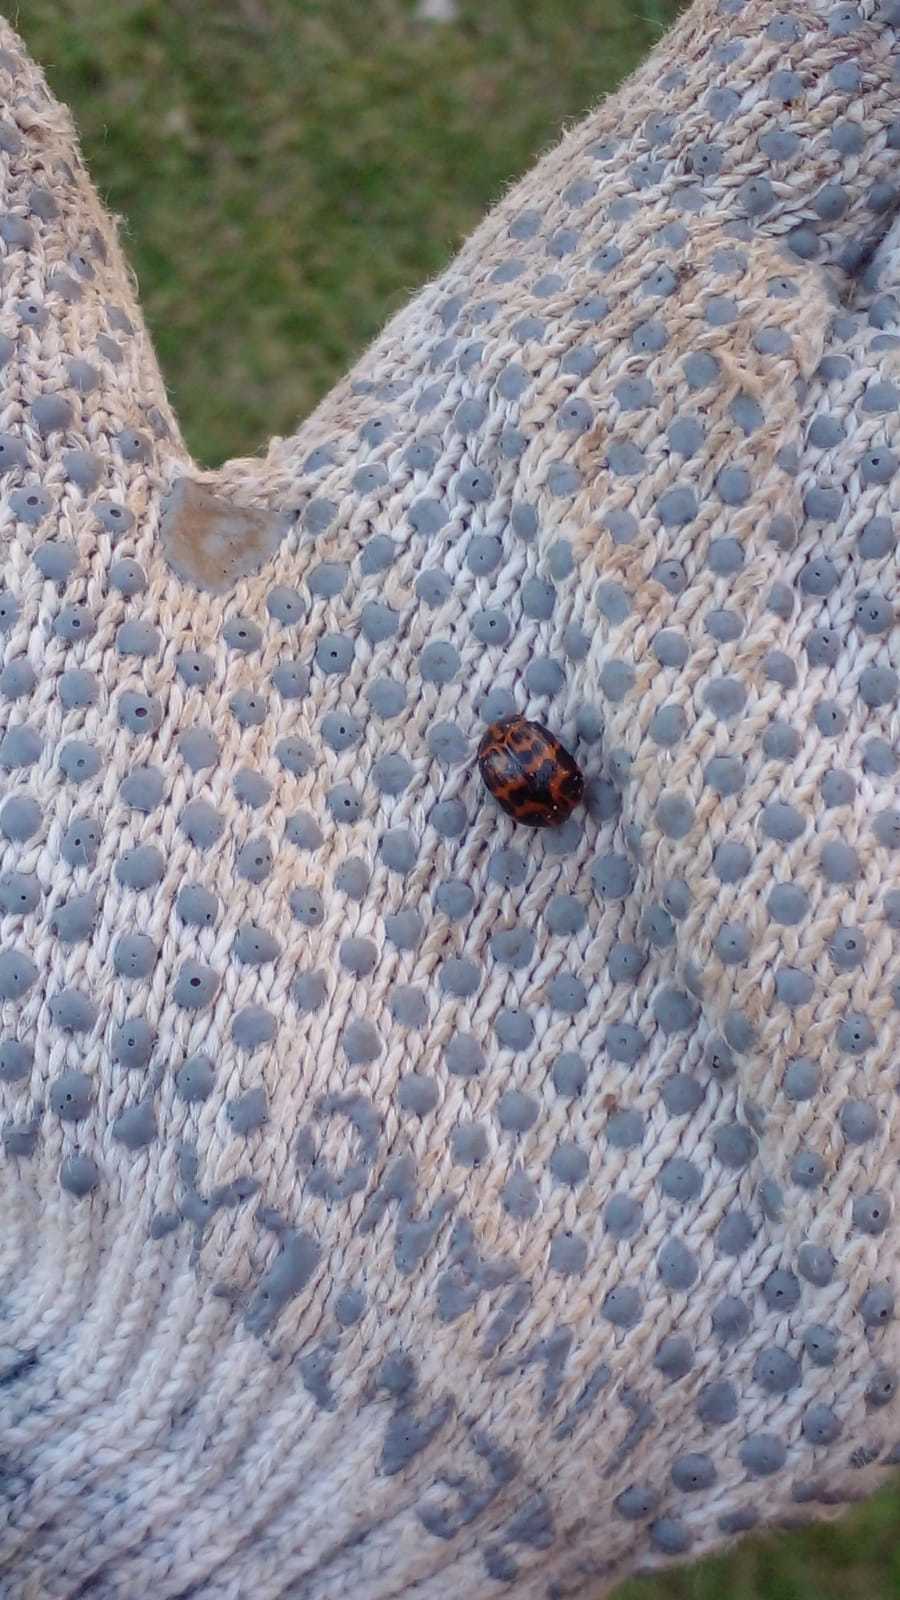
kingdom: Animalia
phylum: Arthropoda
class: Insecta
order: Coleoptera
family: Chrysomelidae
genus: Platyphora
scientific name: Platyphora
